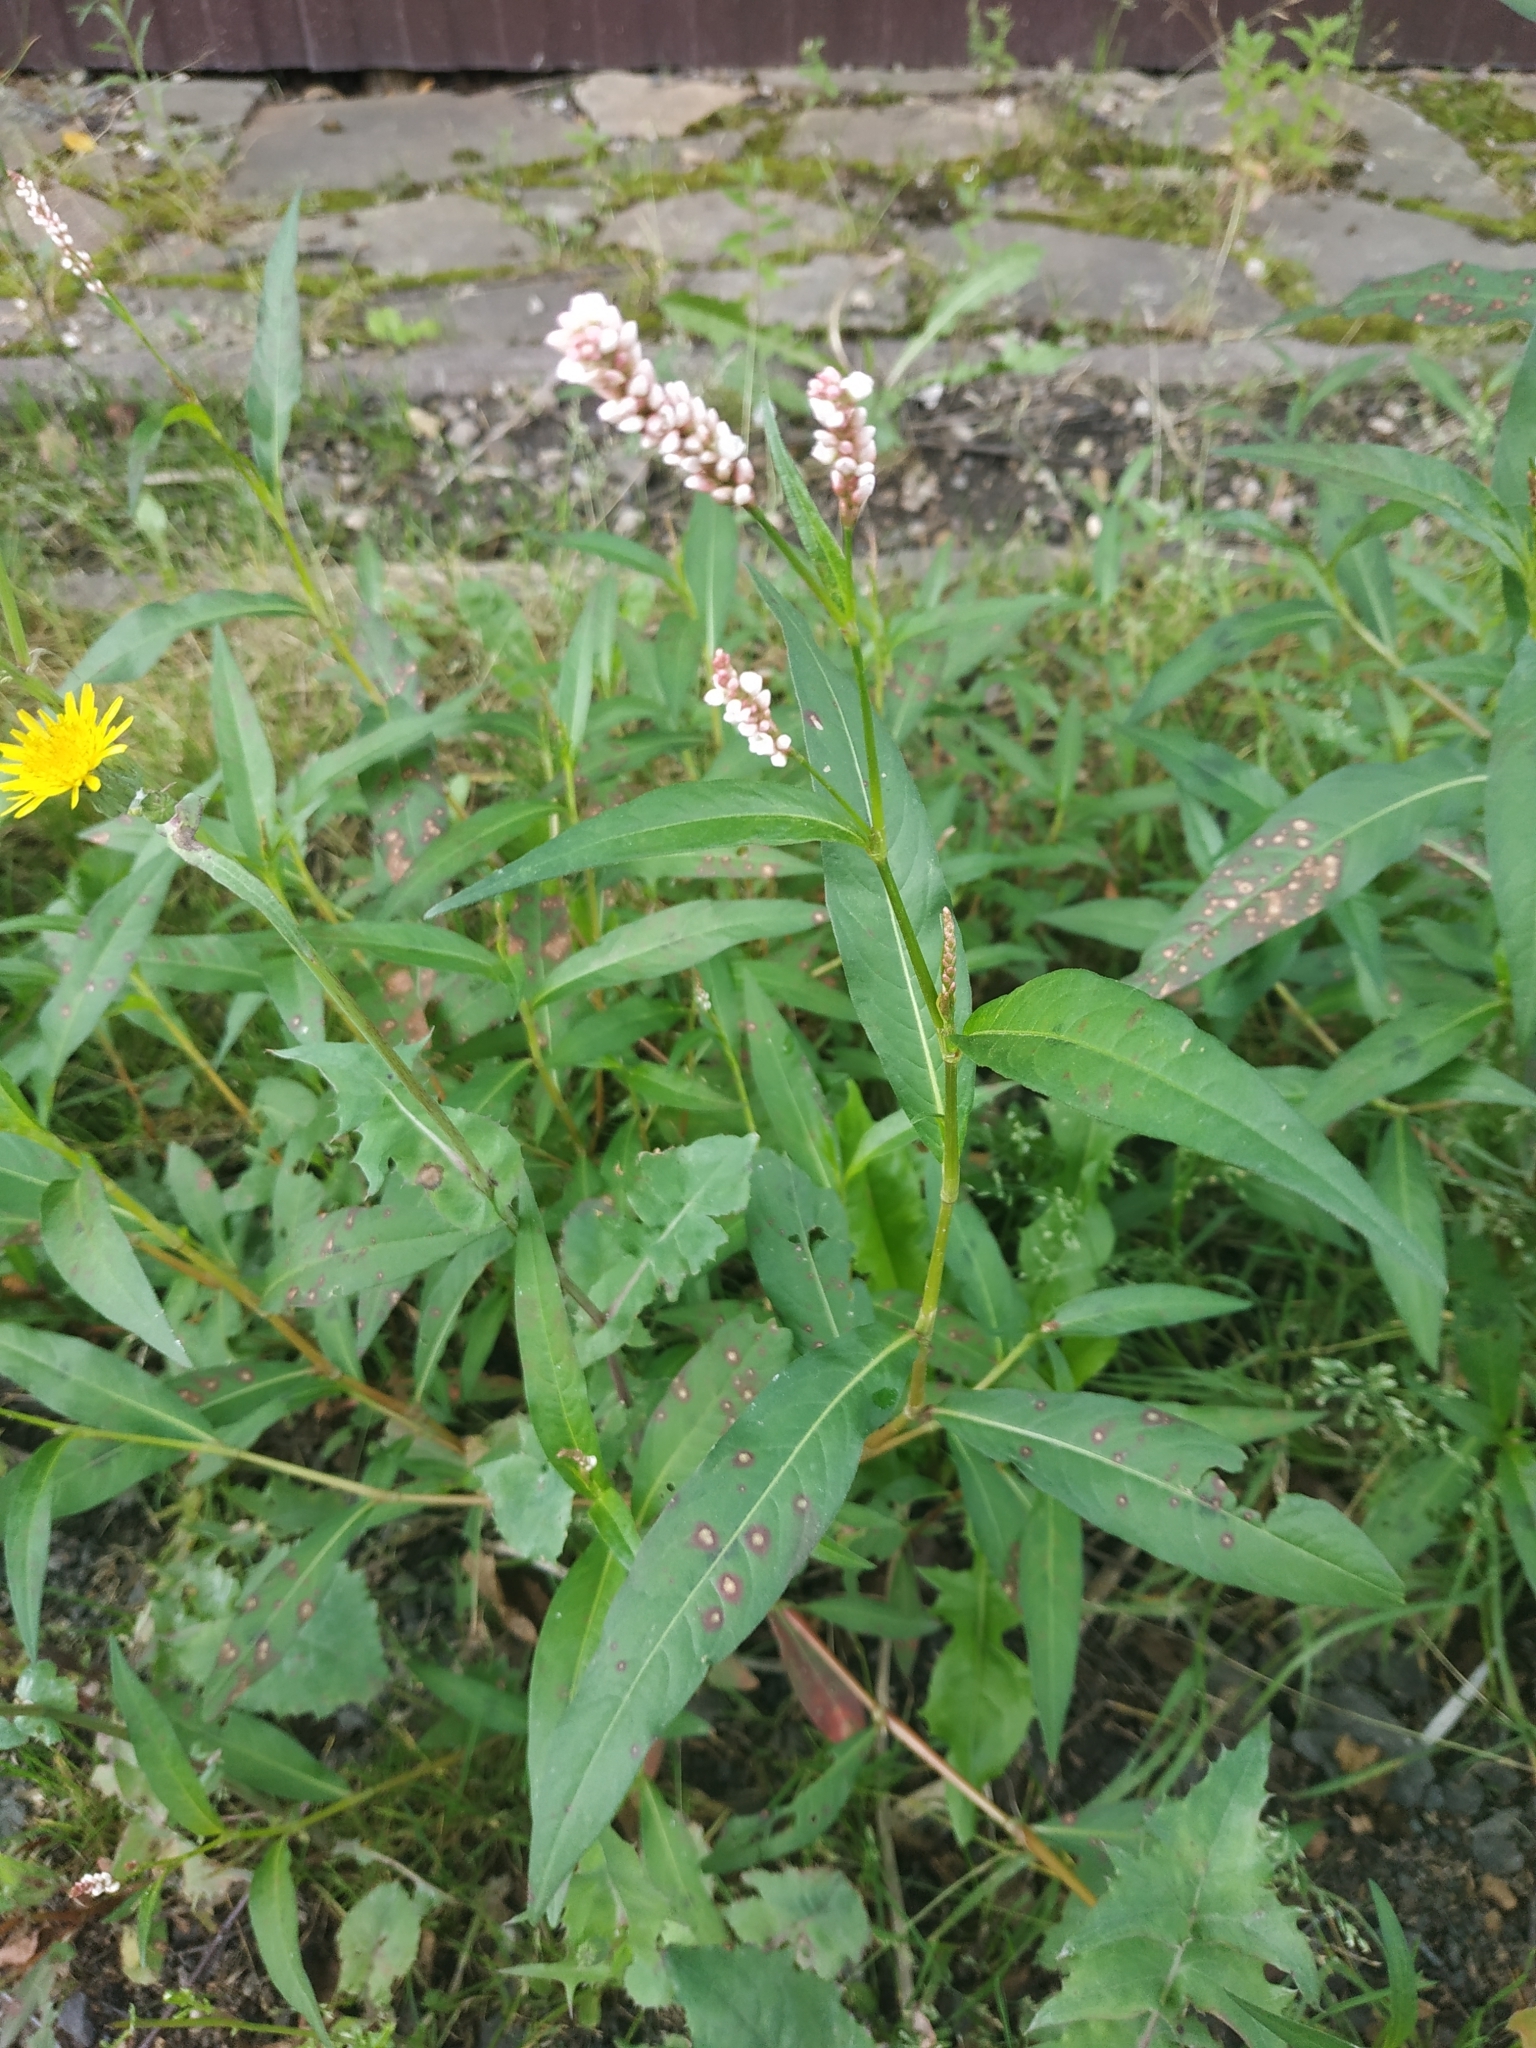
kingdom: Plantae
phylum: Tracheophyta
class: Magnoliopsida
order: Caryophyllales
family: Polygonaceae
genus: Persicaria
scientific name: Persicaria maculosa
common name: Redshank
